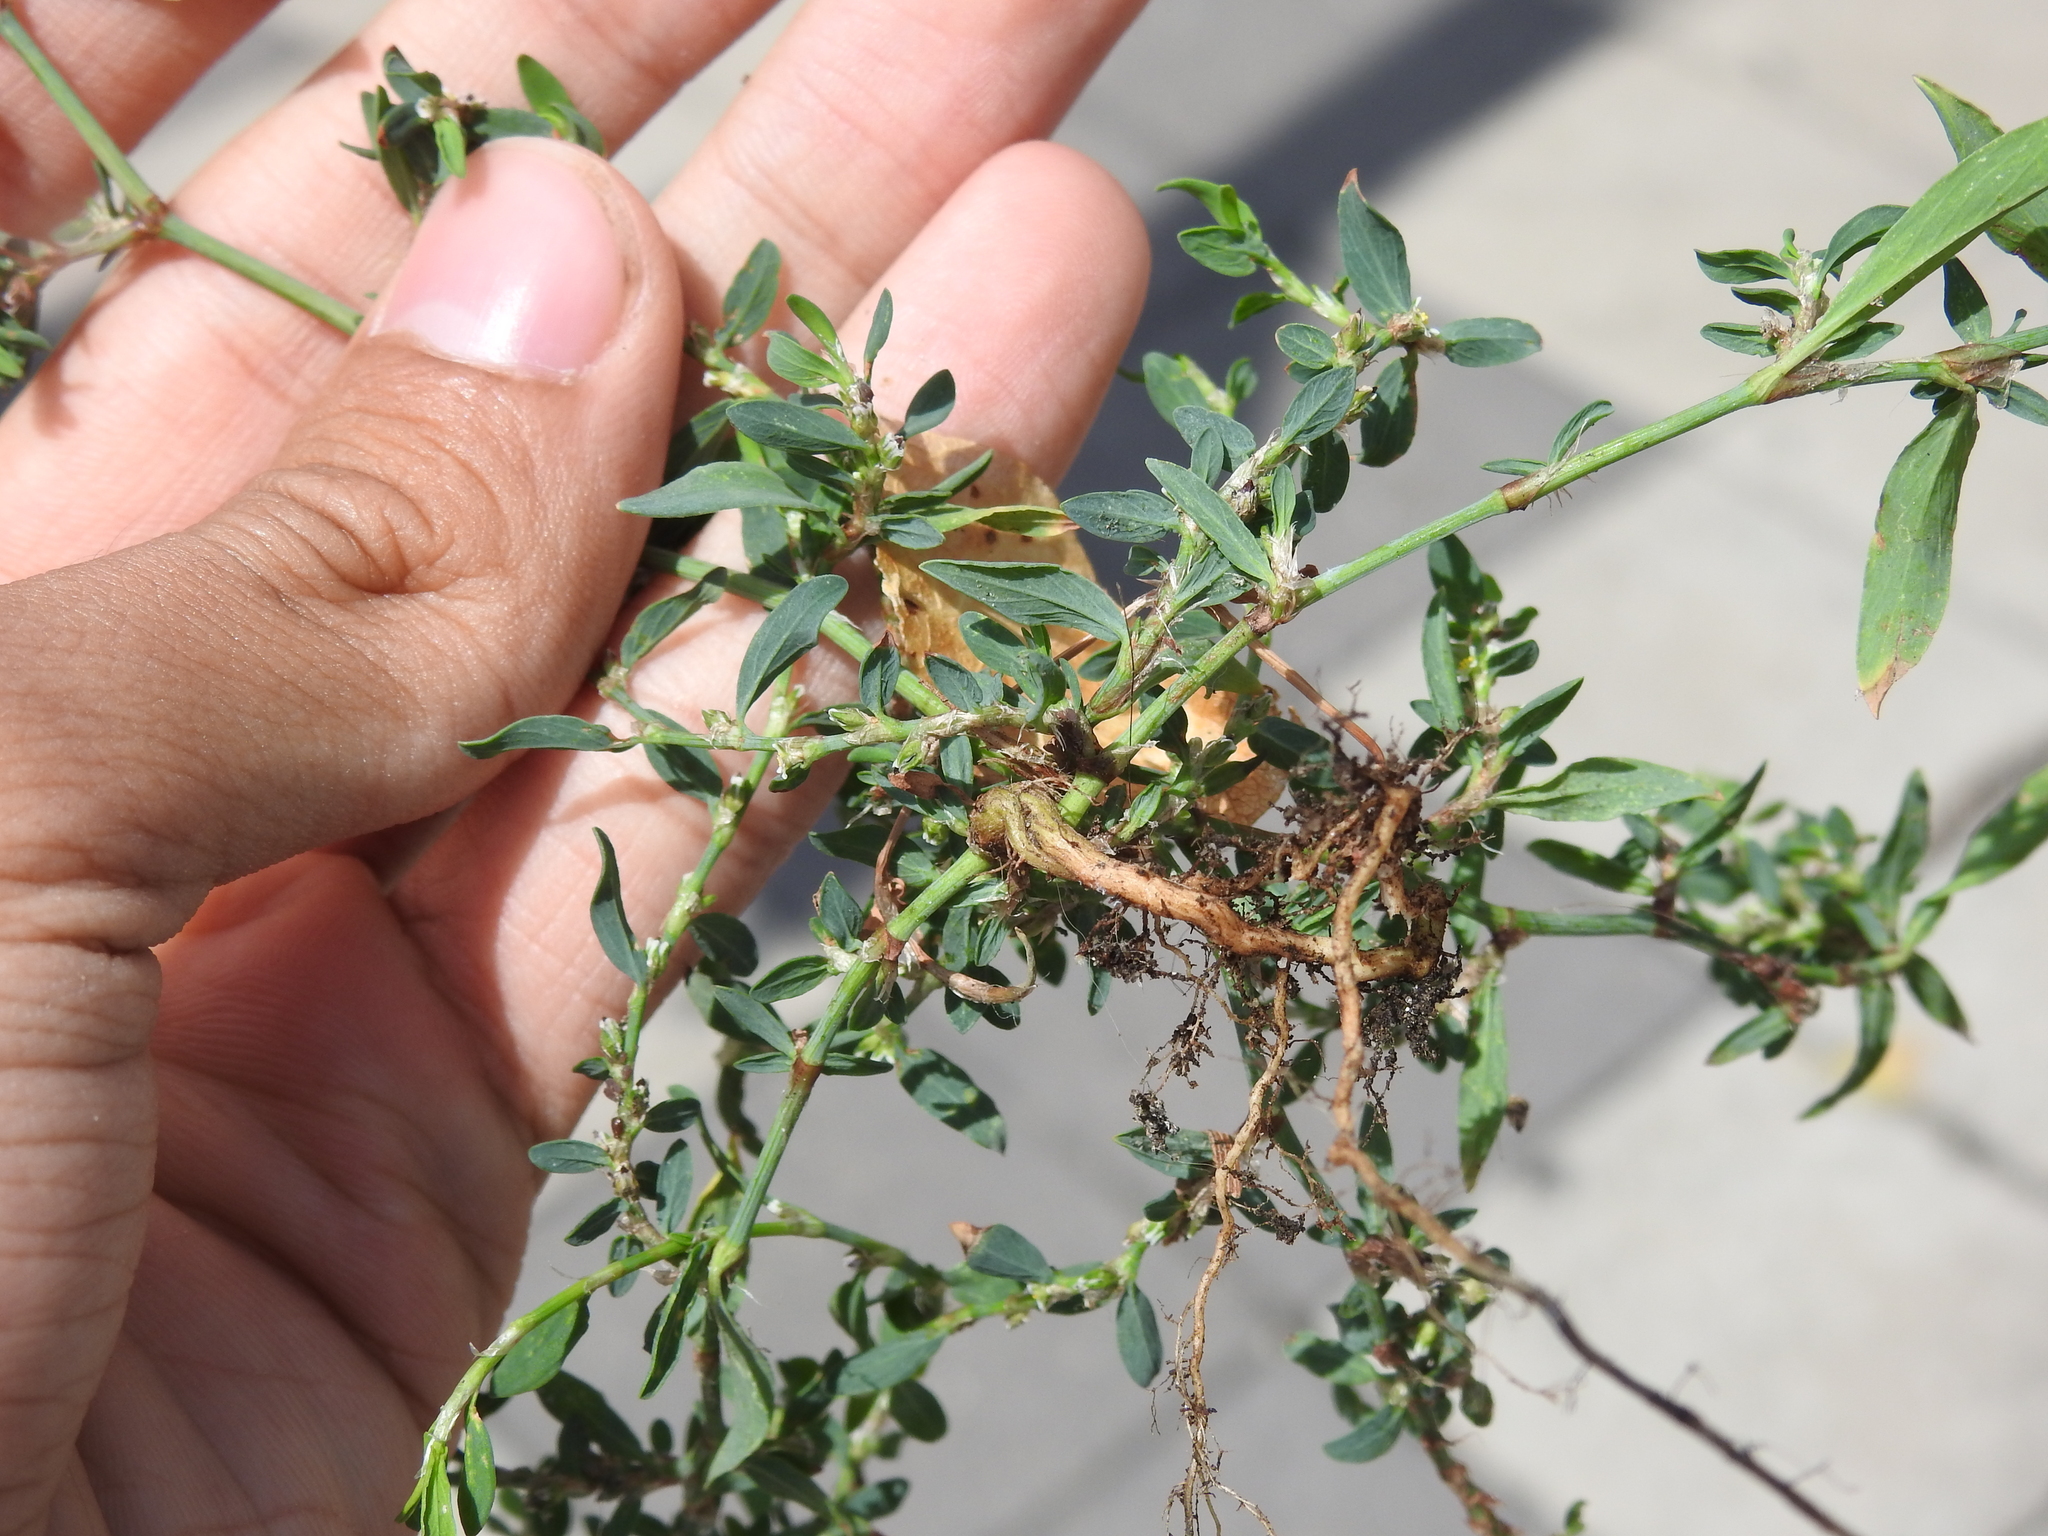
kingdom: Plantae
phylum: Tracheophyta
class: Magnoliopsida
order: Caryophyllales
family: Polygonaceae
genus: Polygonum
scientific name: Polygonum aviculare
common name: Prostrate knotweed
